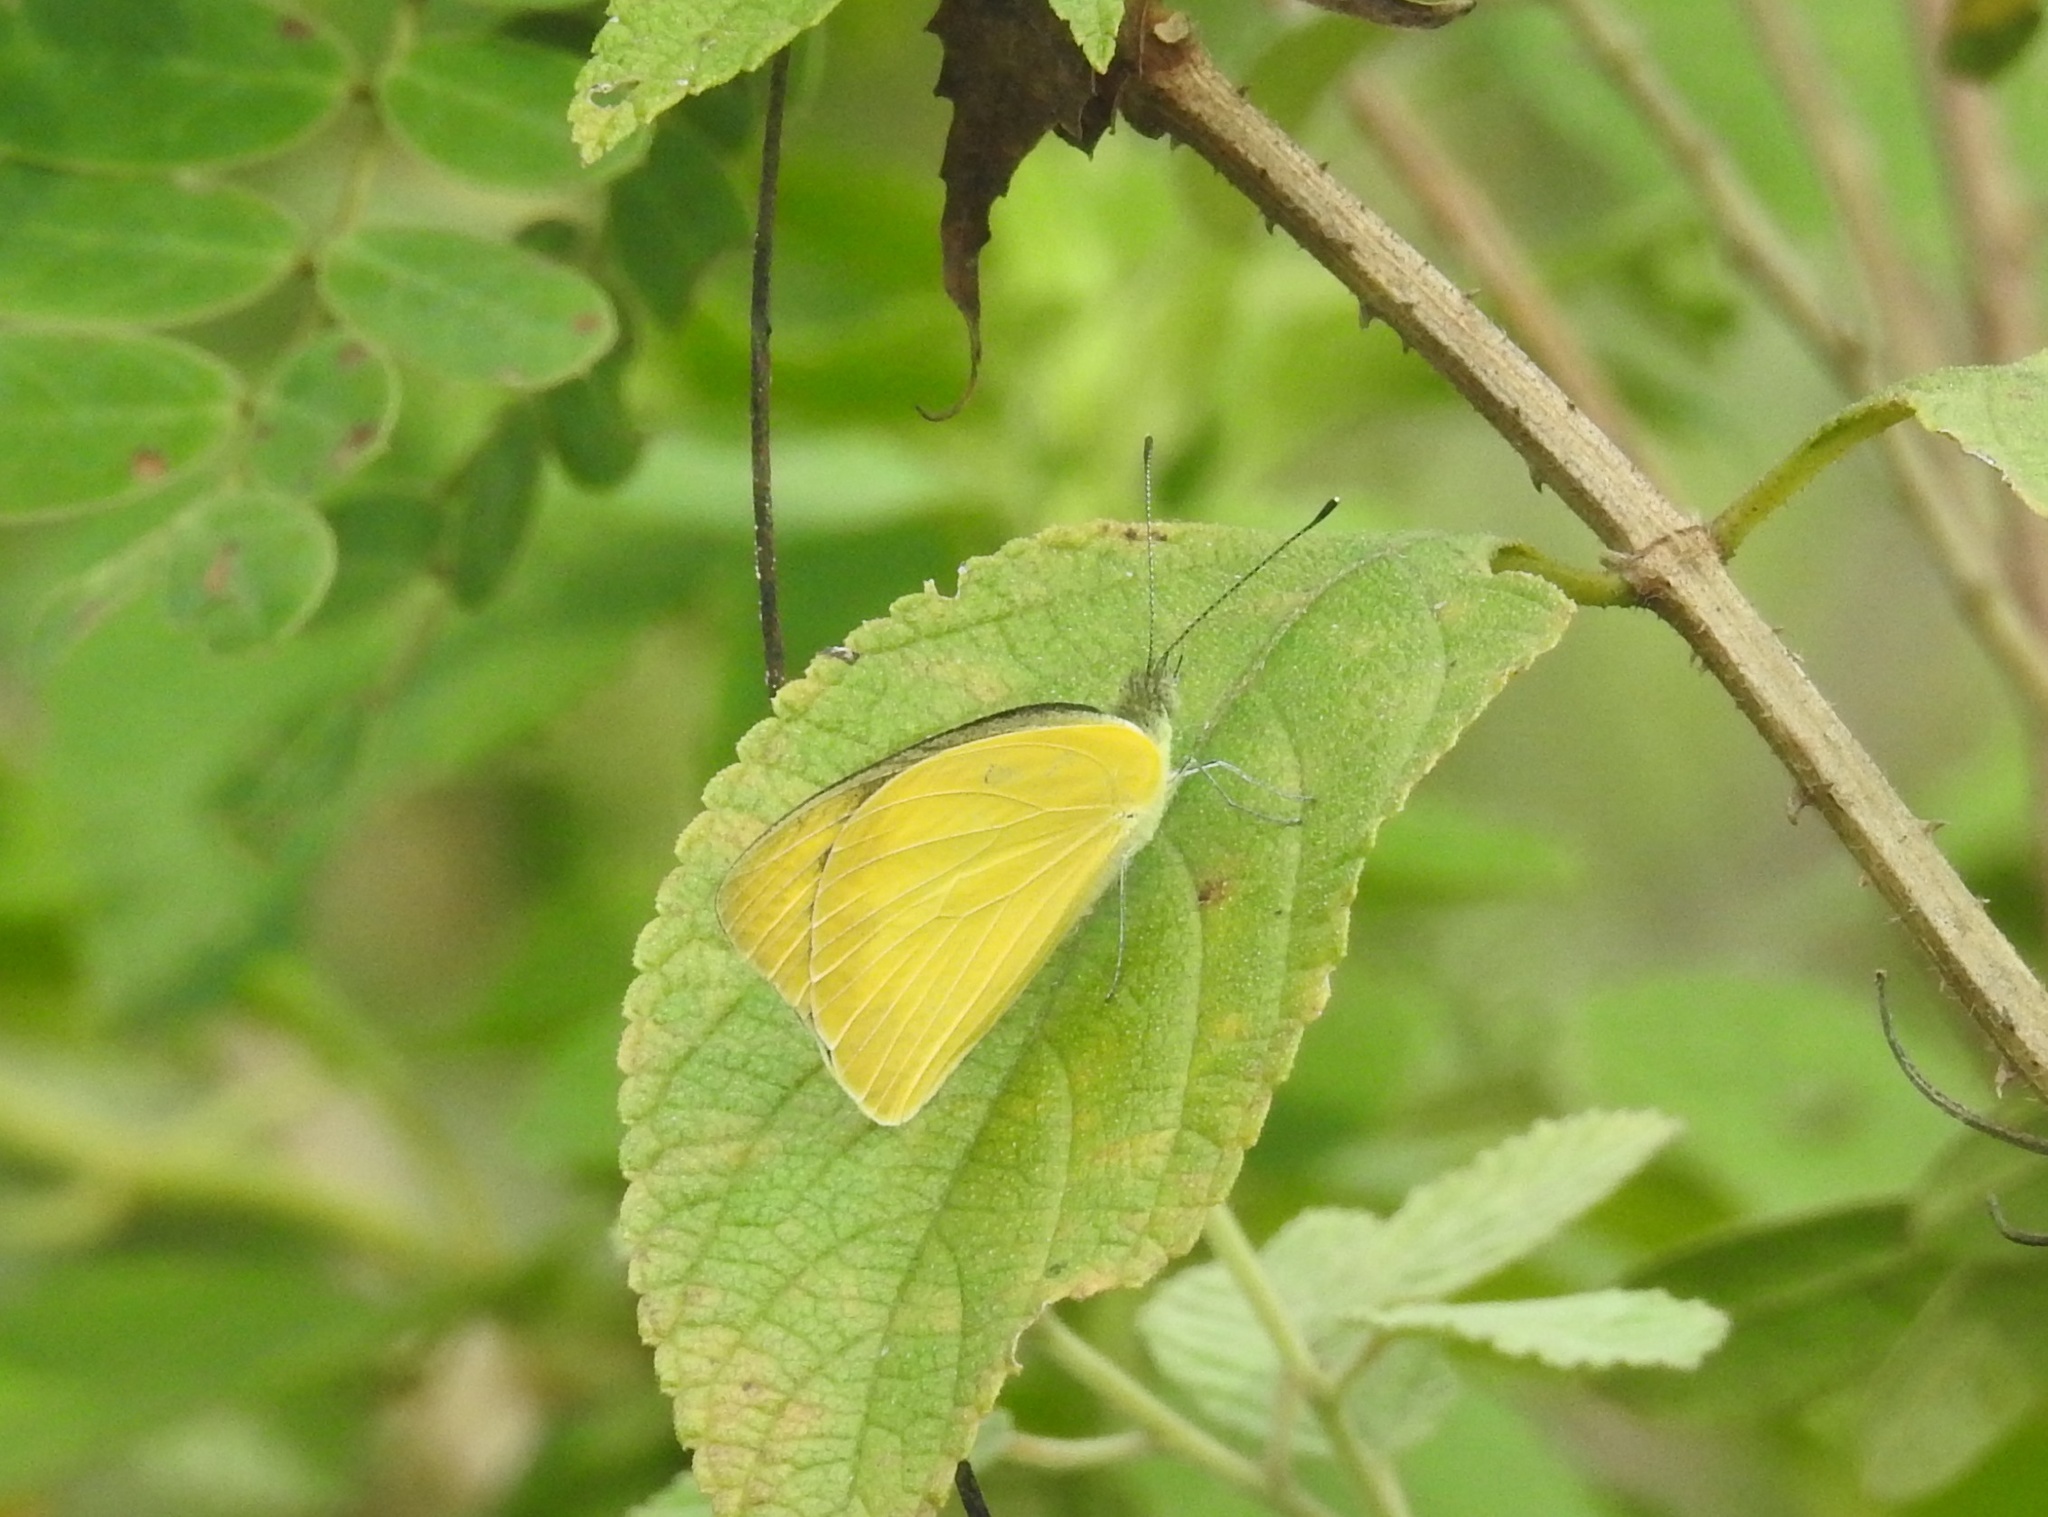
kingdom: Animalia
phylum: Arthropoda
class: Insecta
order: Lepidoptera
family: Pieridae
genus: Appias
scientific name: Appias albina
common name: Common albatross
